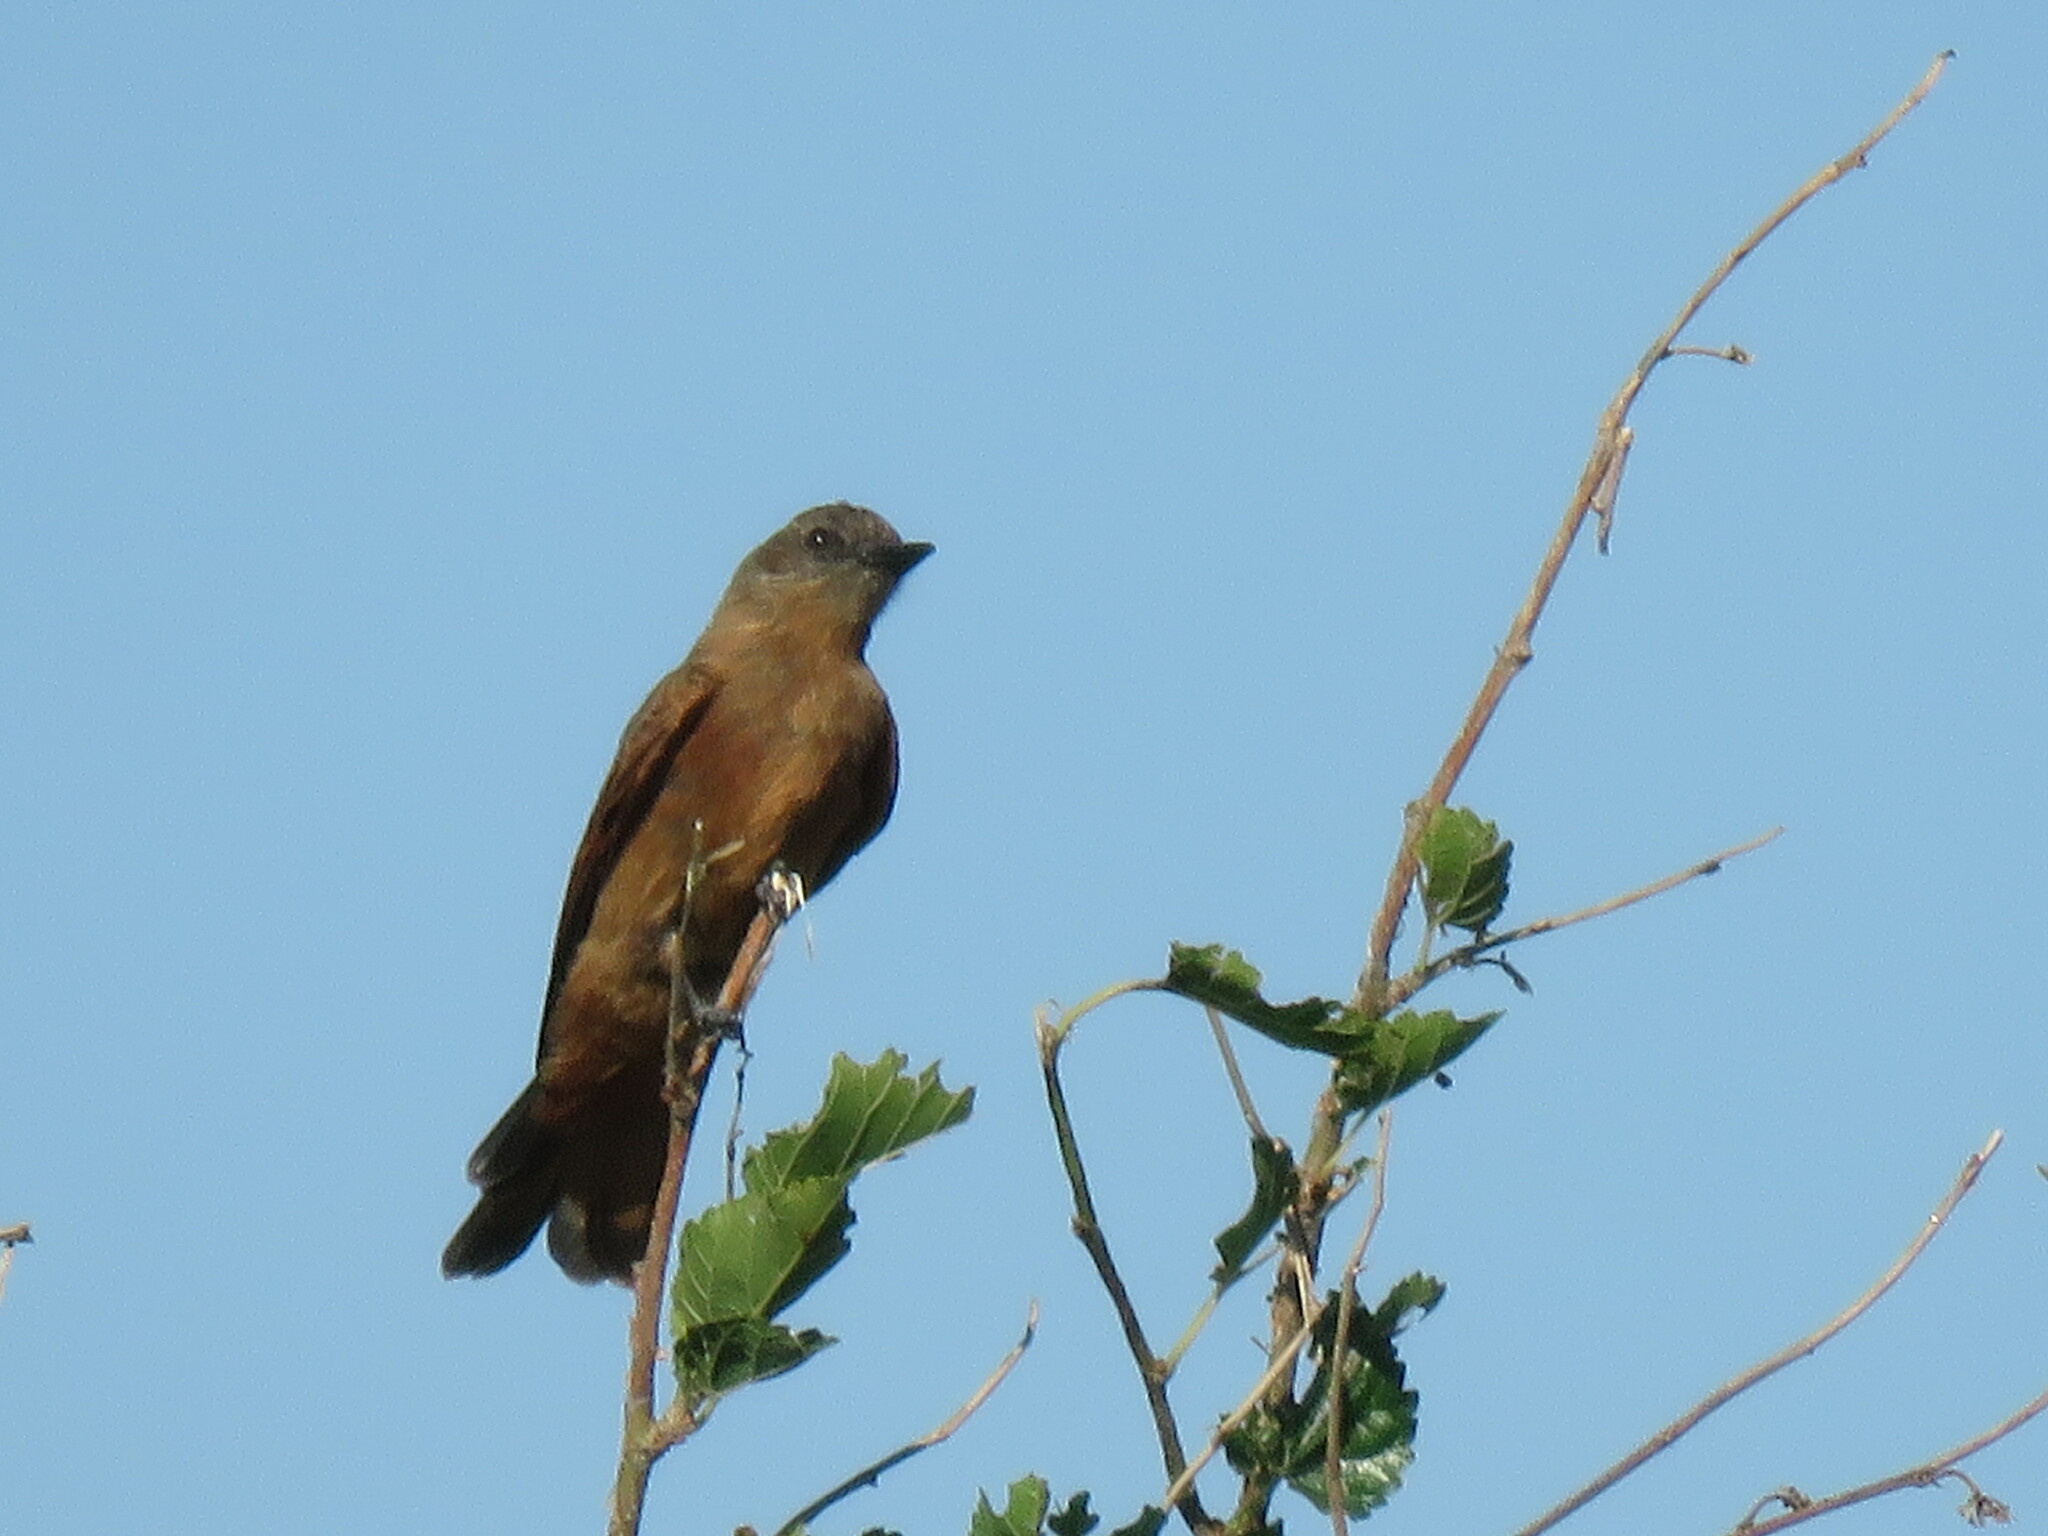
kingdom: Animalia
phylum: Chordata
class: Aves
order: Passeriformes
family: Tyrannidae
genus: Hirundinea
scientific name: Hirundinea ferruginea
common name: Cliff flycatcher
